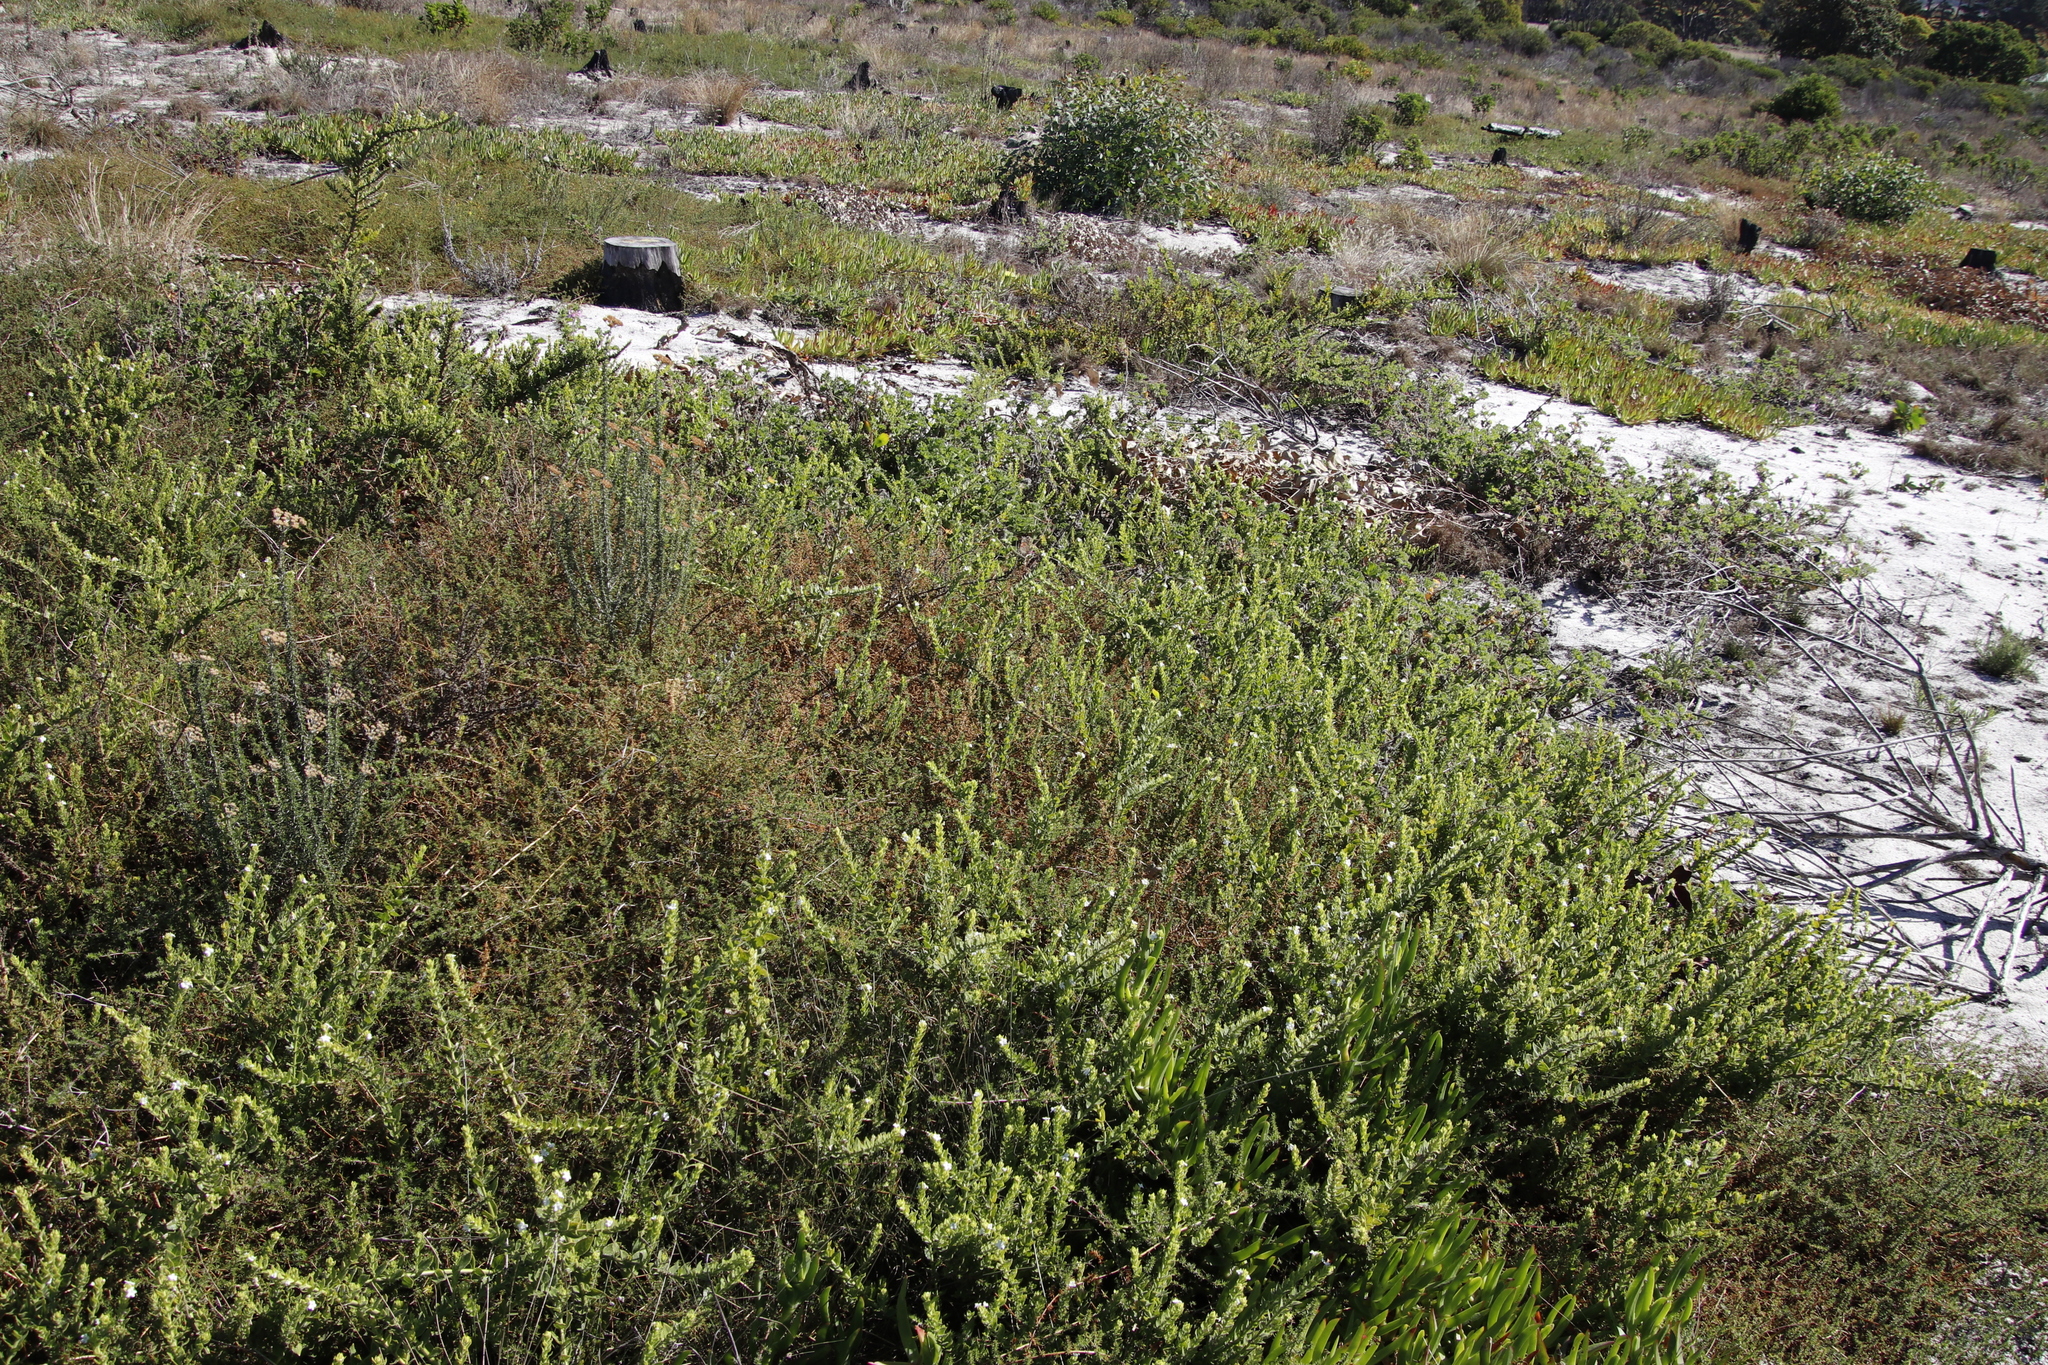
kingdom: Plantae
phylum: Tracheophyta
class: Magnoliopsida
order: Lamiales
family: Scrophulariaceae
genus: Oftia
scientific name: Oftia africana
